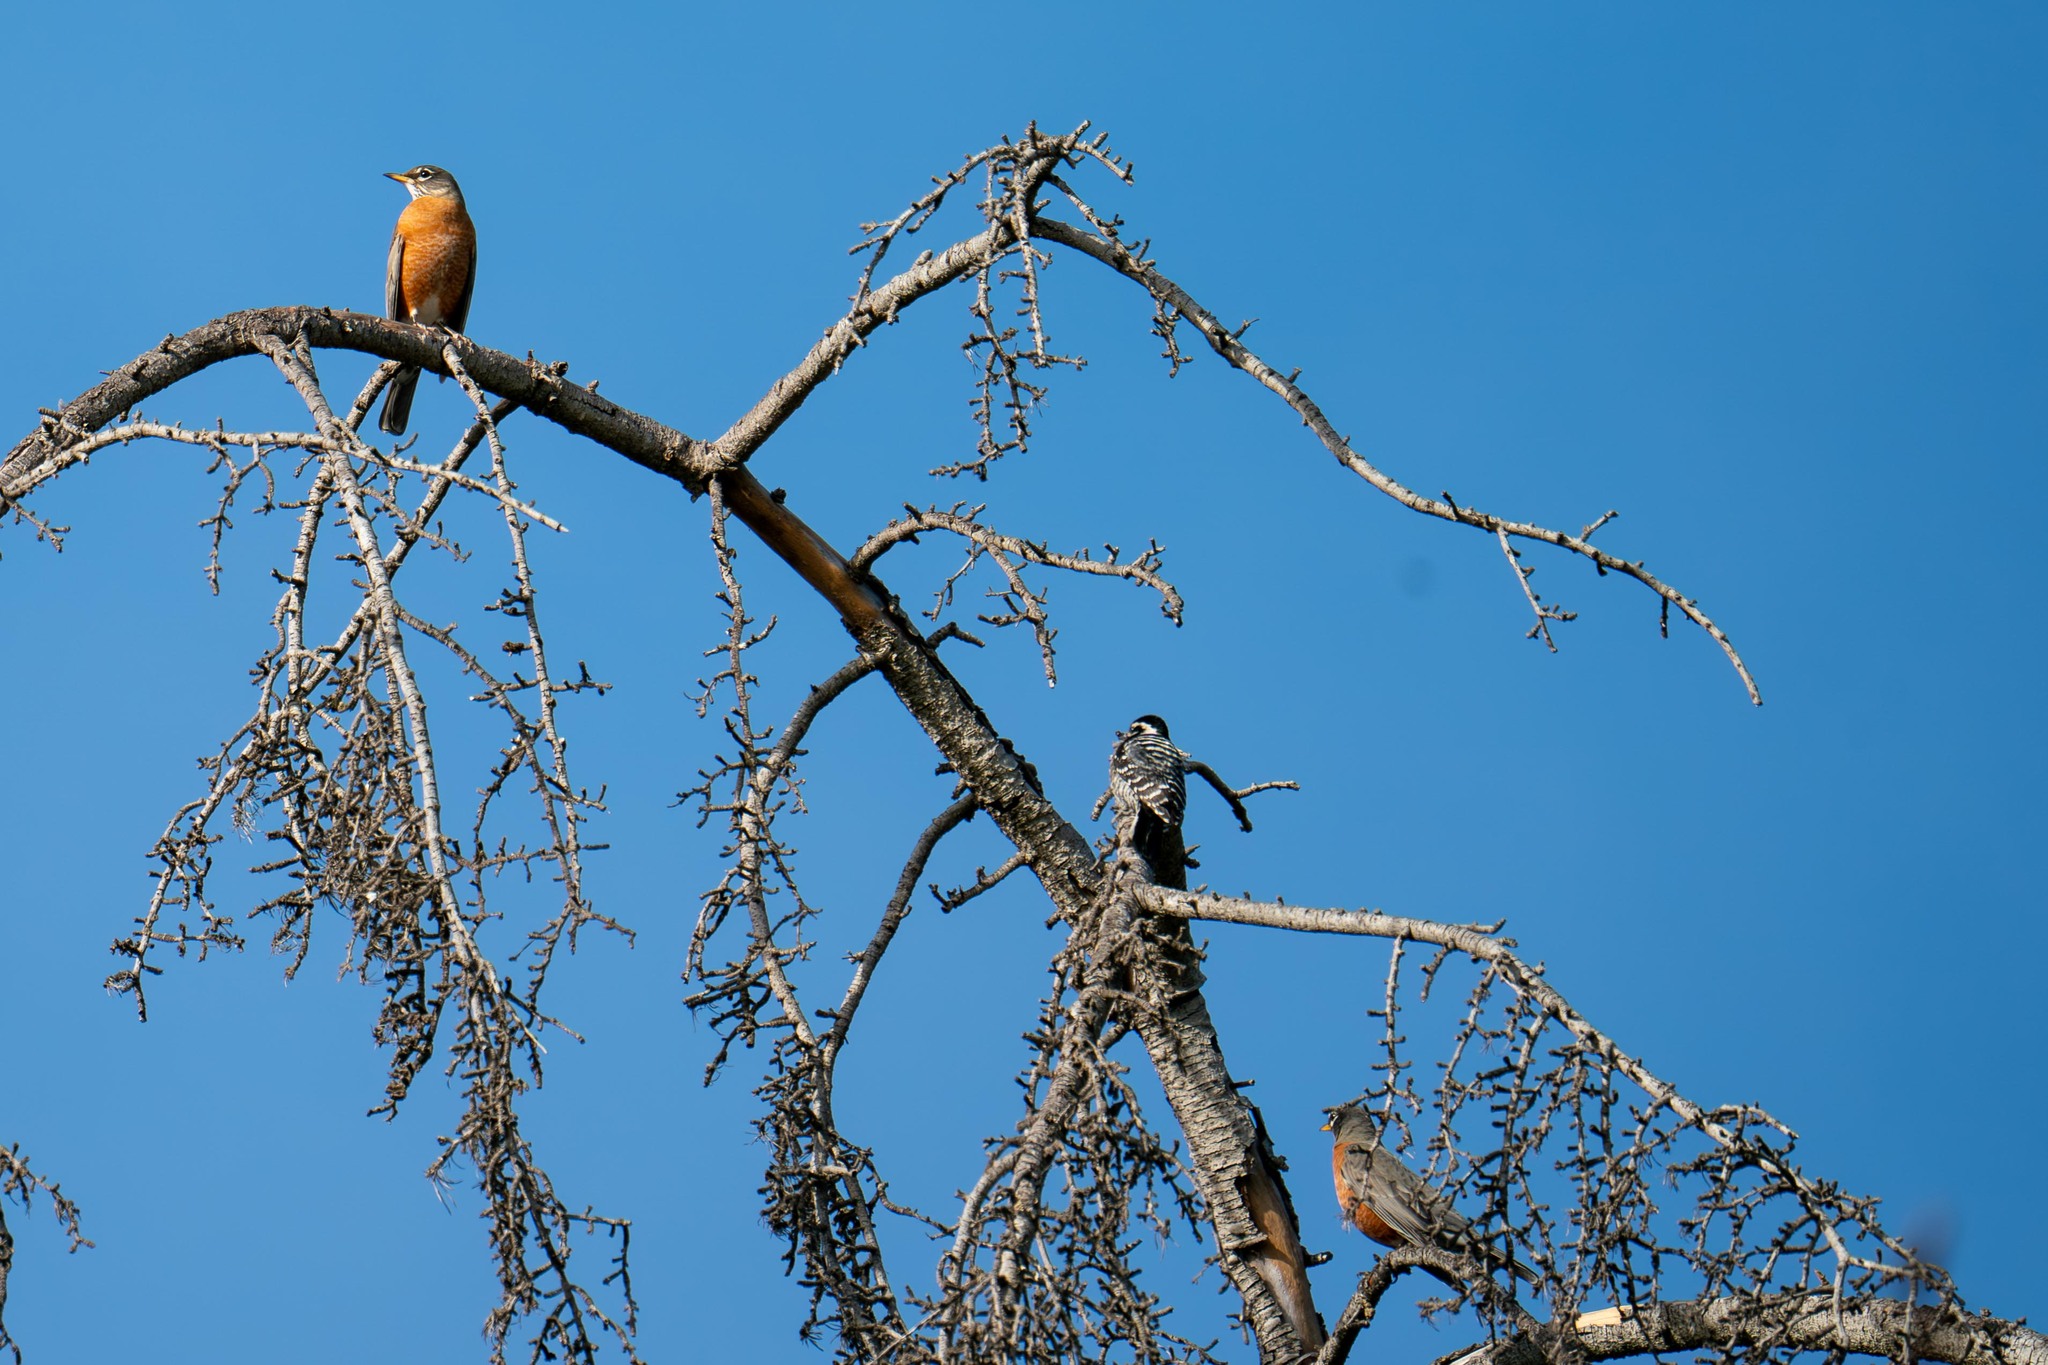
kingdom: Animalia
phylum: Chordata
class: Aves
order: Passeriformes
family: Turdidae
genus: Turdus
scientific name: Turdus migratorius
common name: American robin
